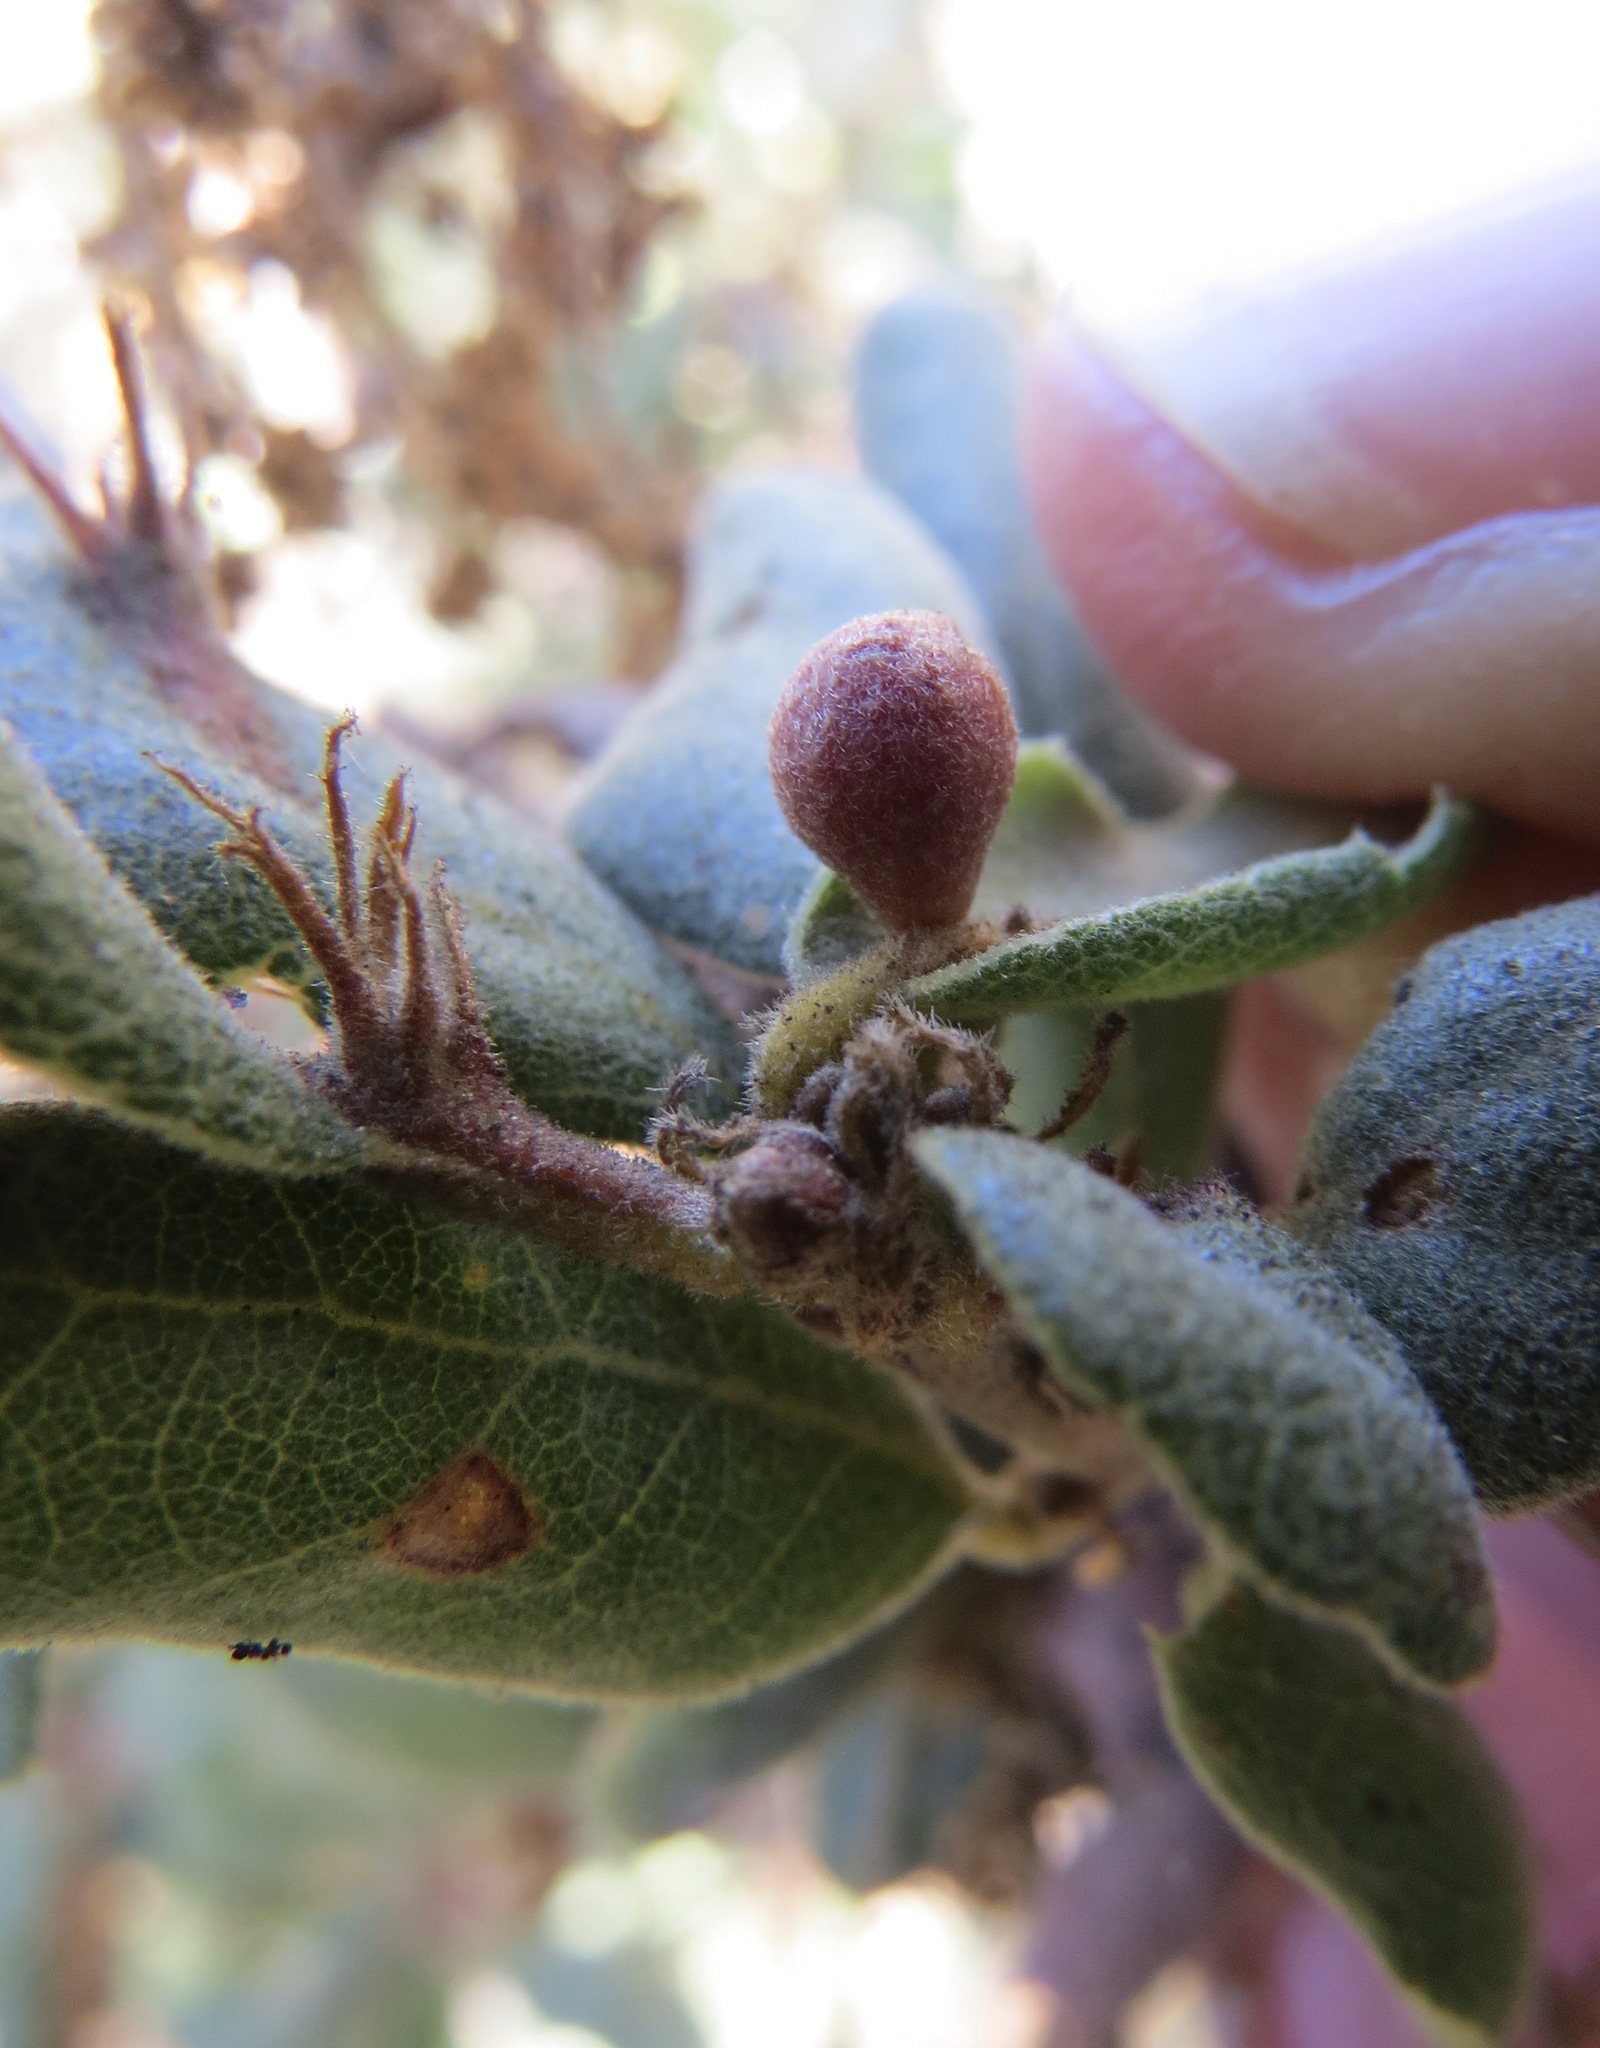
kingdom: Animalia
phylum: Arthropoda
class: Insecta
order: Hymenoptera
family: Cynipidae
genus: Andricus
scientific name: Andricus
